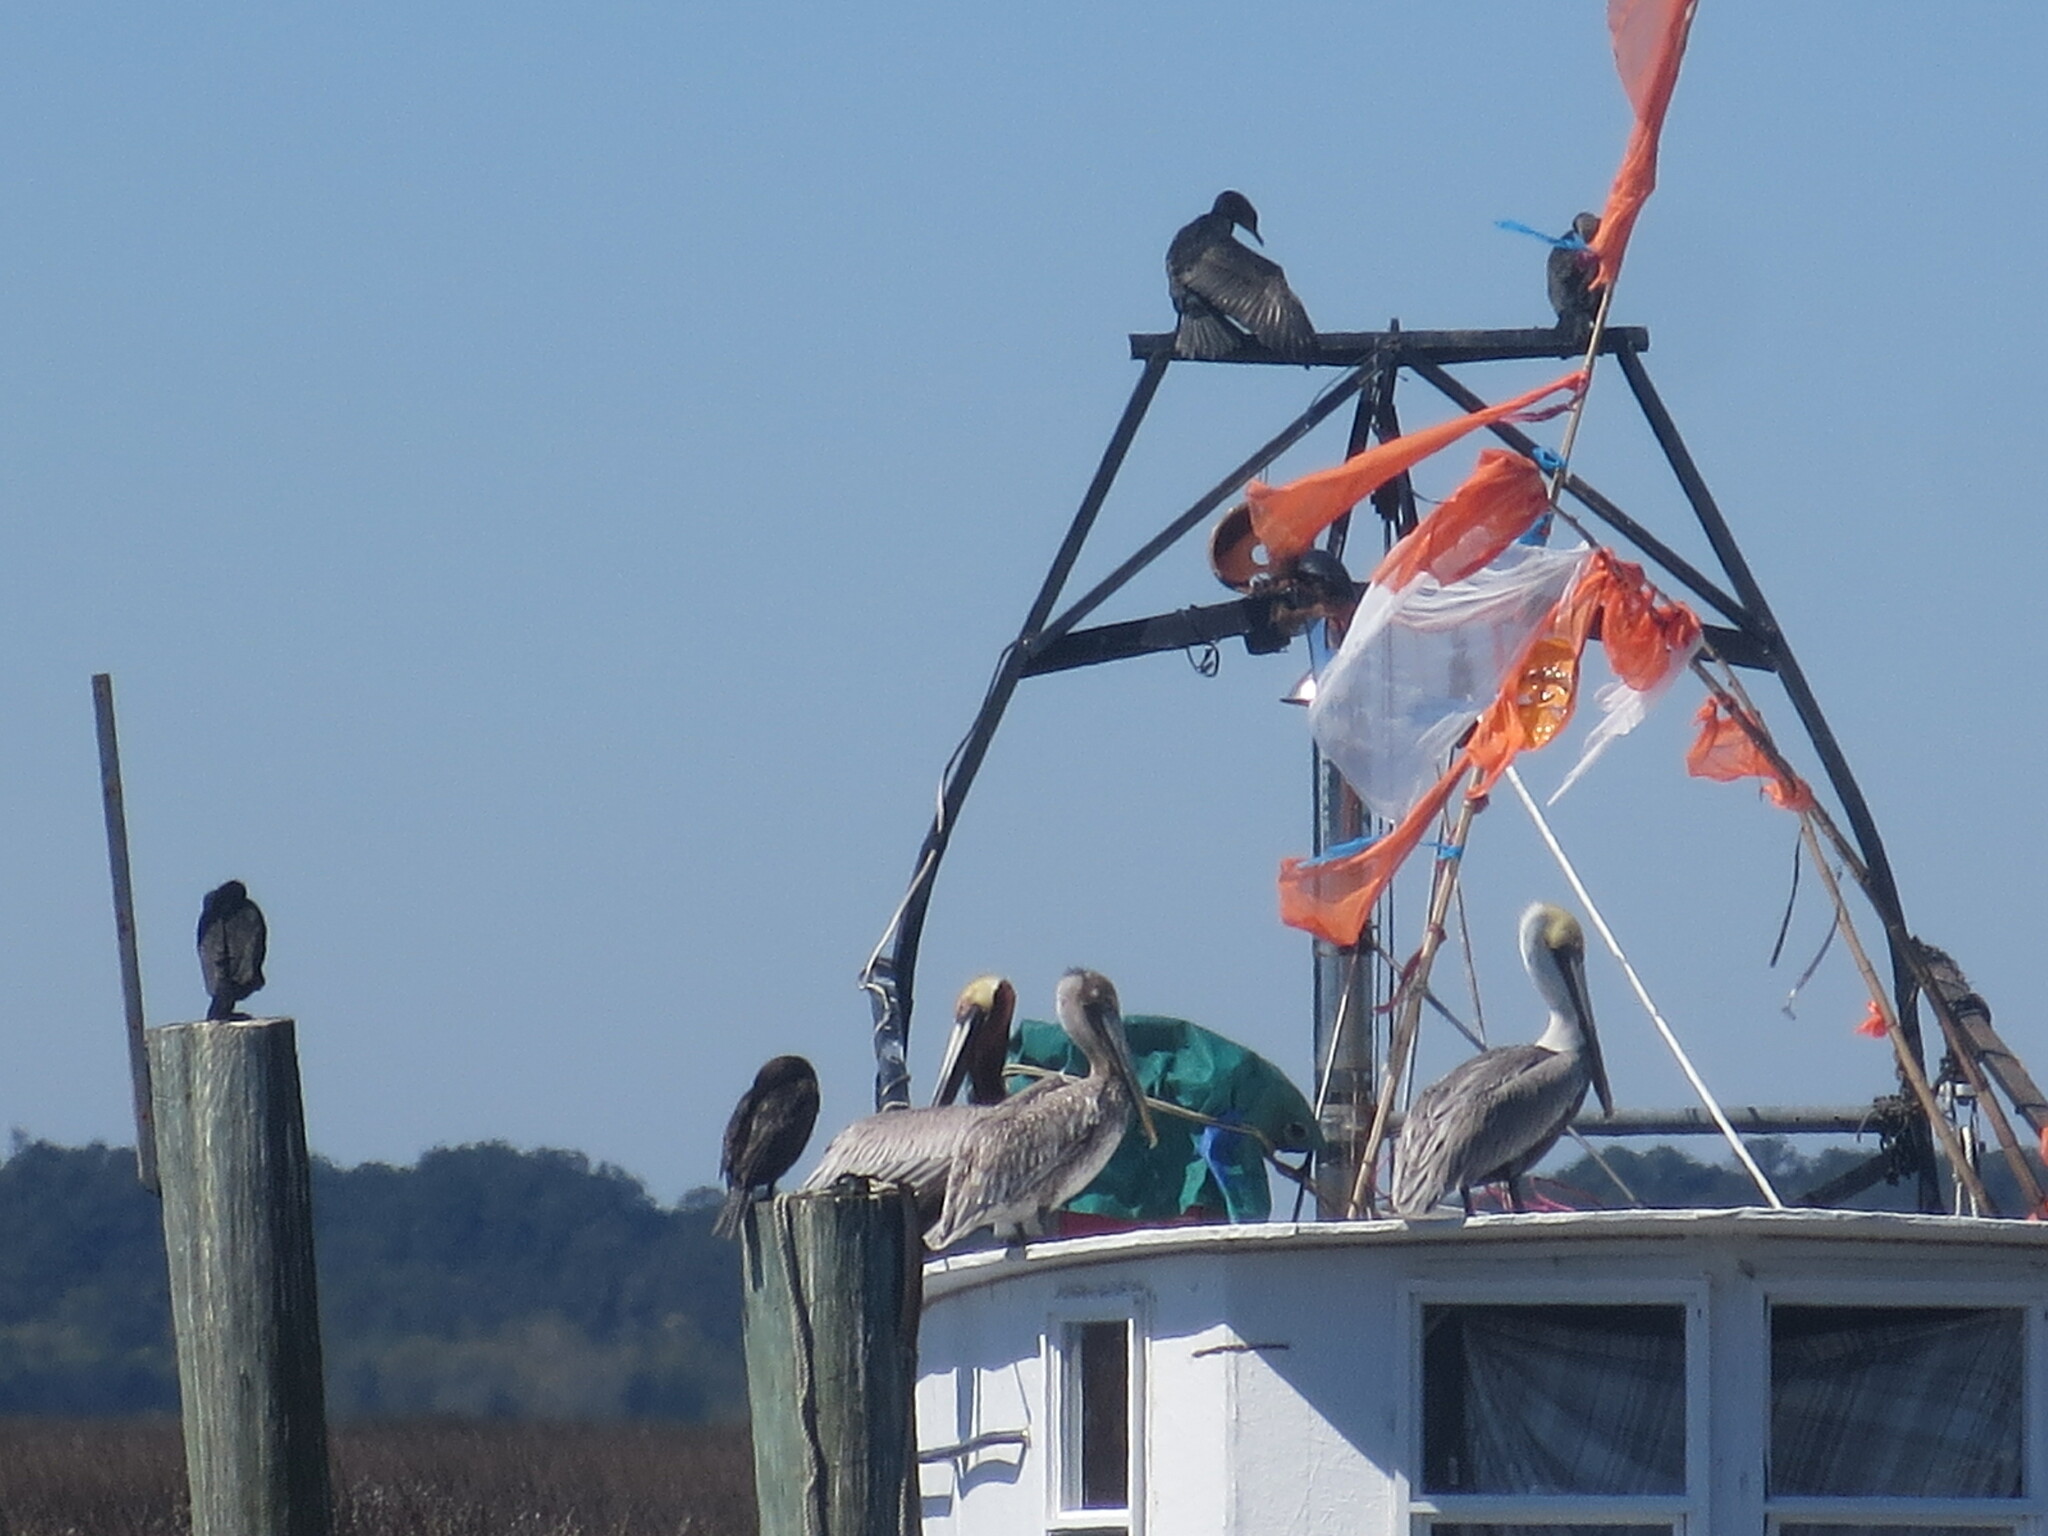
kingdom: Animalia
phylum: Chordata
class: Aves
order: Suliformes
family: Phalacrocoracidae
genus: Phalacrocorax
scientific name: Phalacrocorax auritus
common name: Double-crested cormorant
